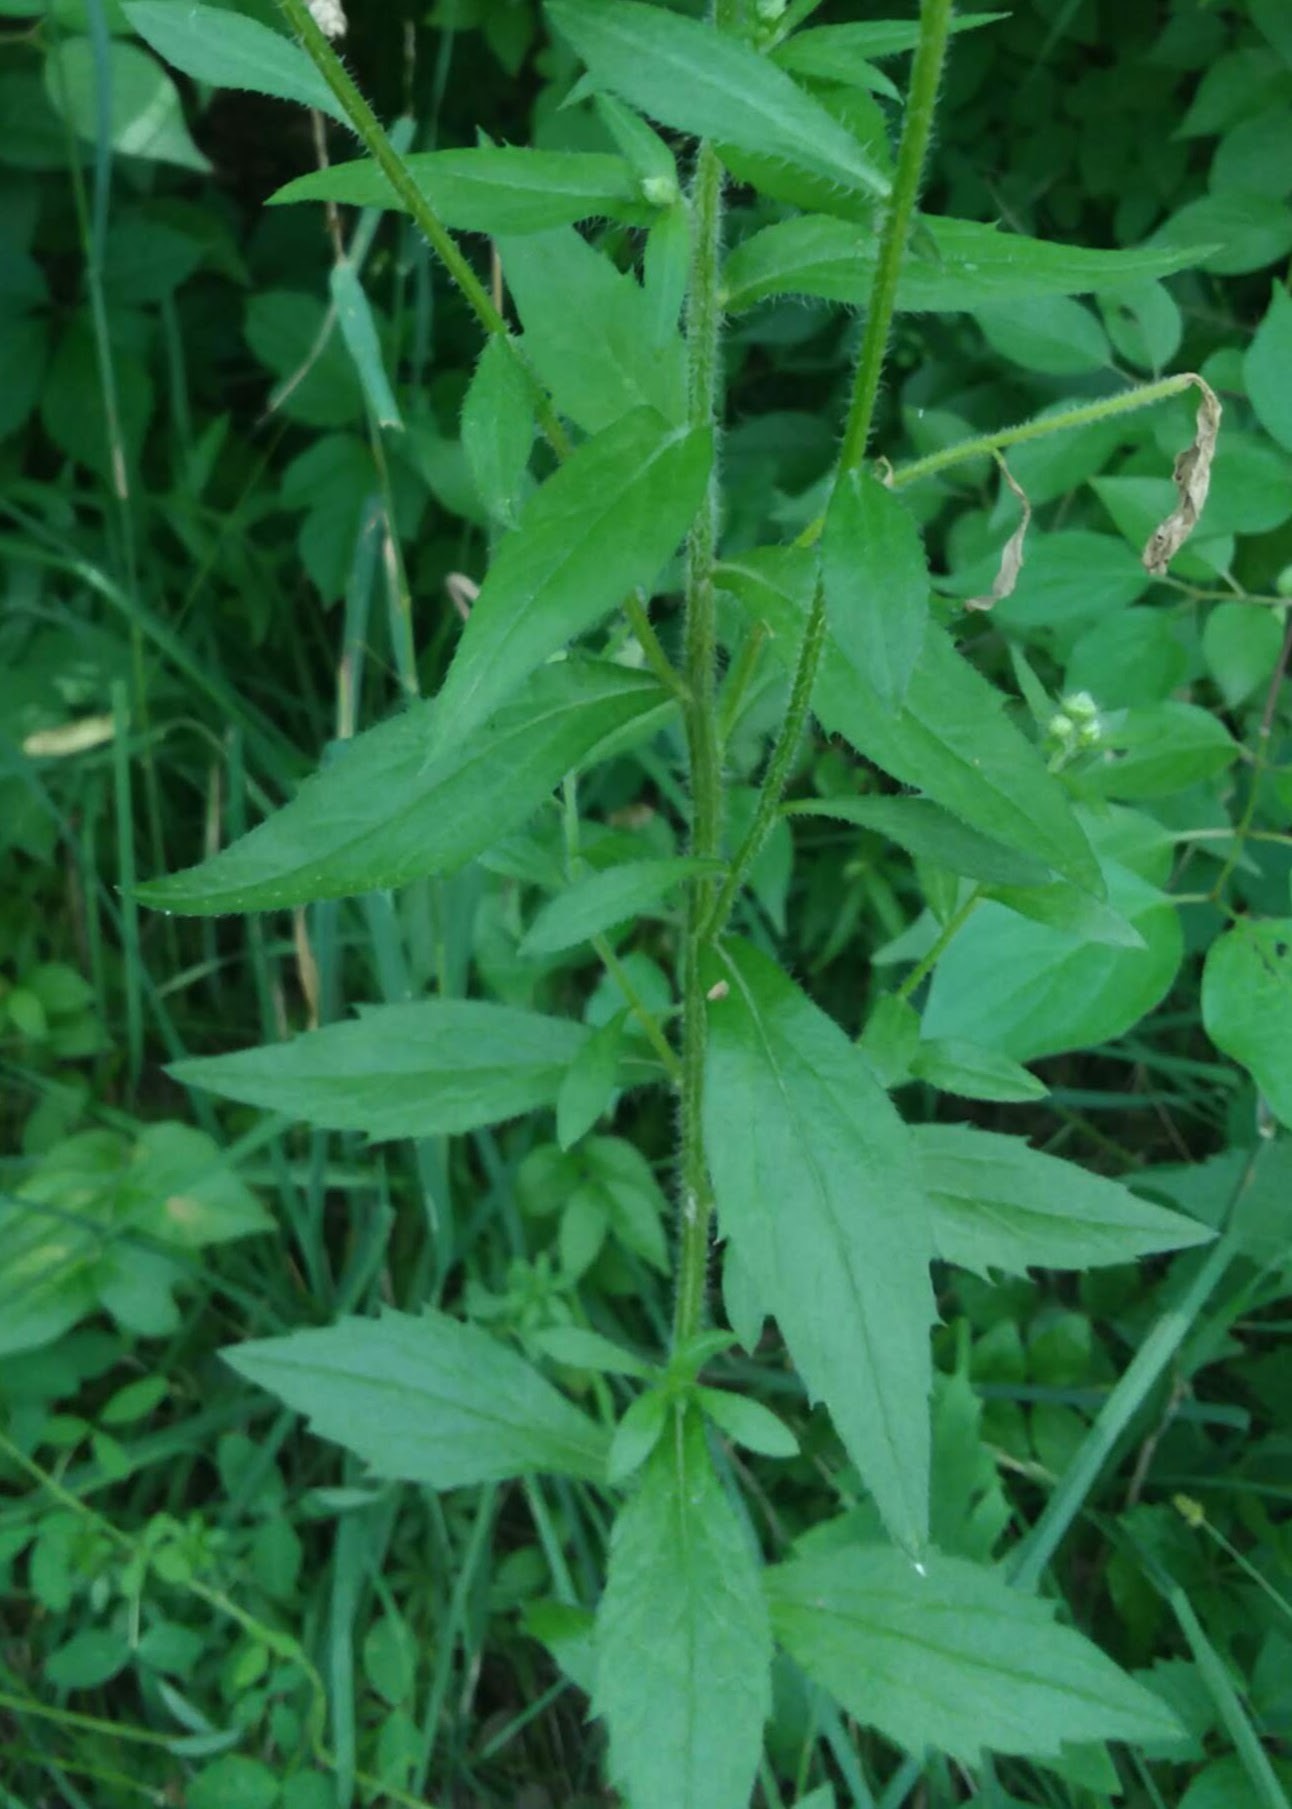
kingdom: Plantae
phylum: Tracheophyta
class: Magnoliopsida
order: Asterales
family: Asteraceae
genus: Erigeron
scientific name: Erigeron annuus
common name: Tall fleabane
